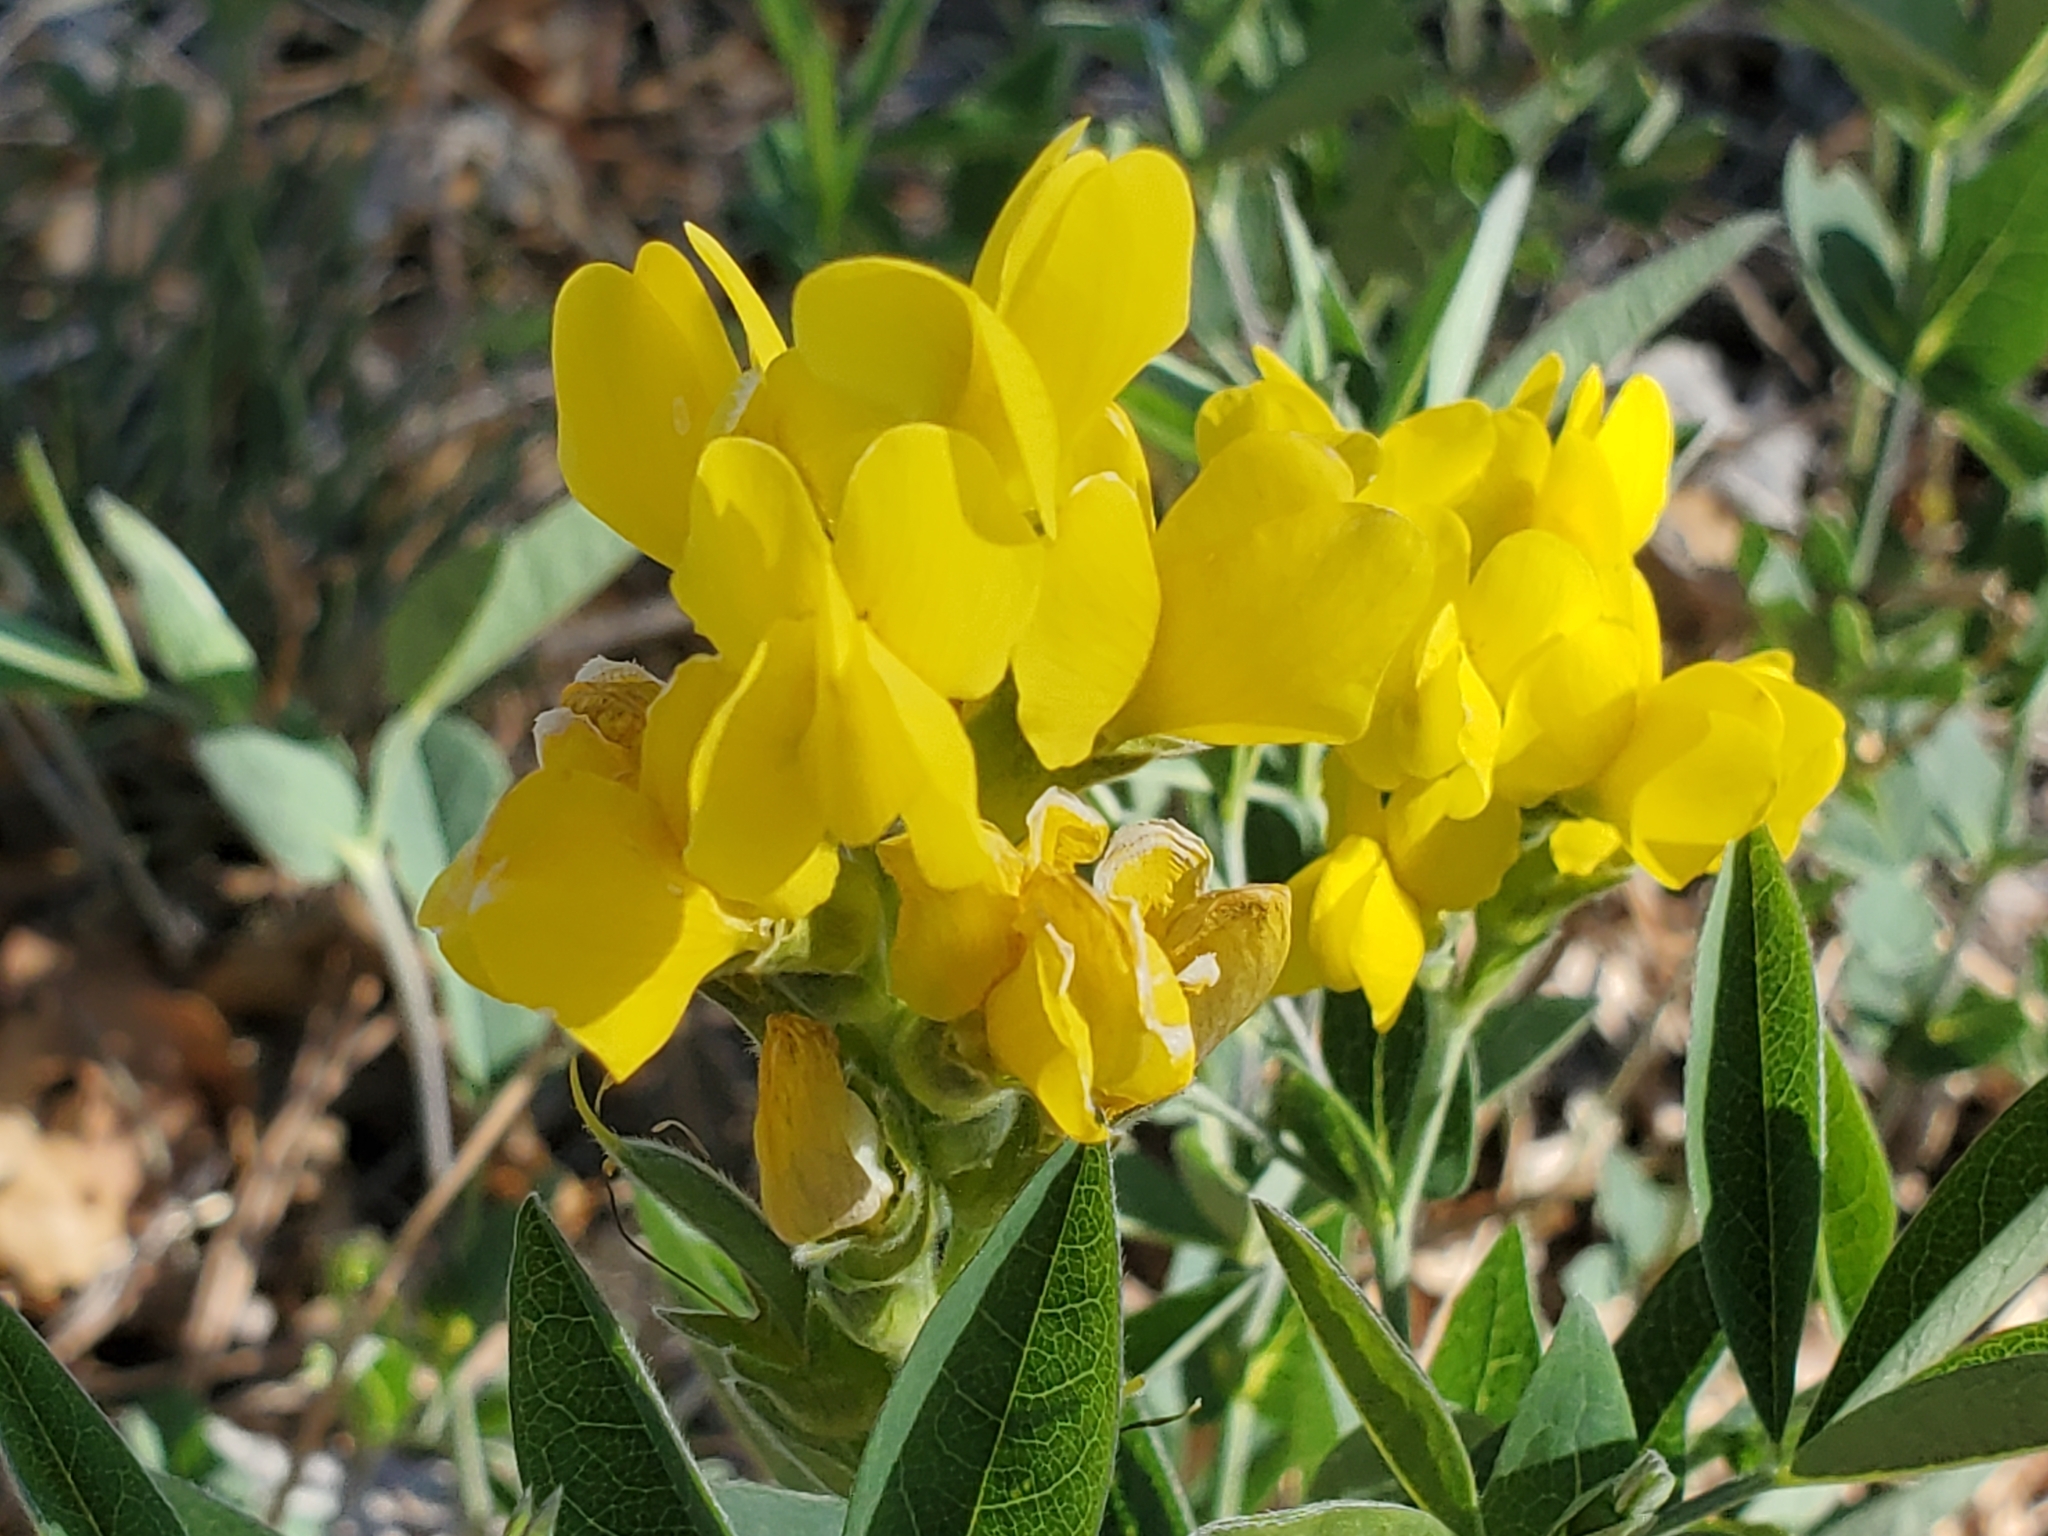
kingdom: Plantae
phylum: Tracheophyta
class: Magnoliopsida
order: Fabales
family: Fabaceae
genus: Thermopsis
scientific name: Thermopsis montana
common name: False lupin
